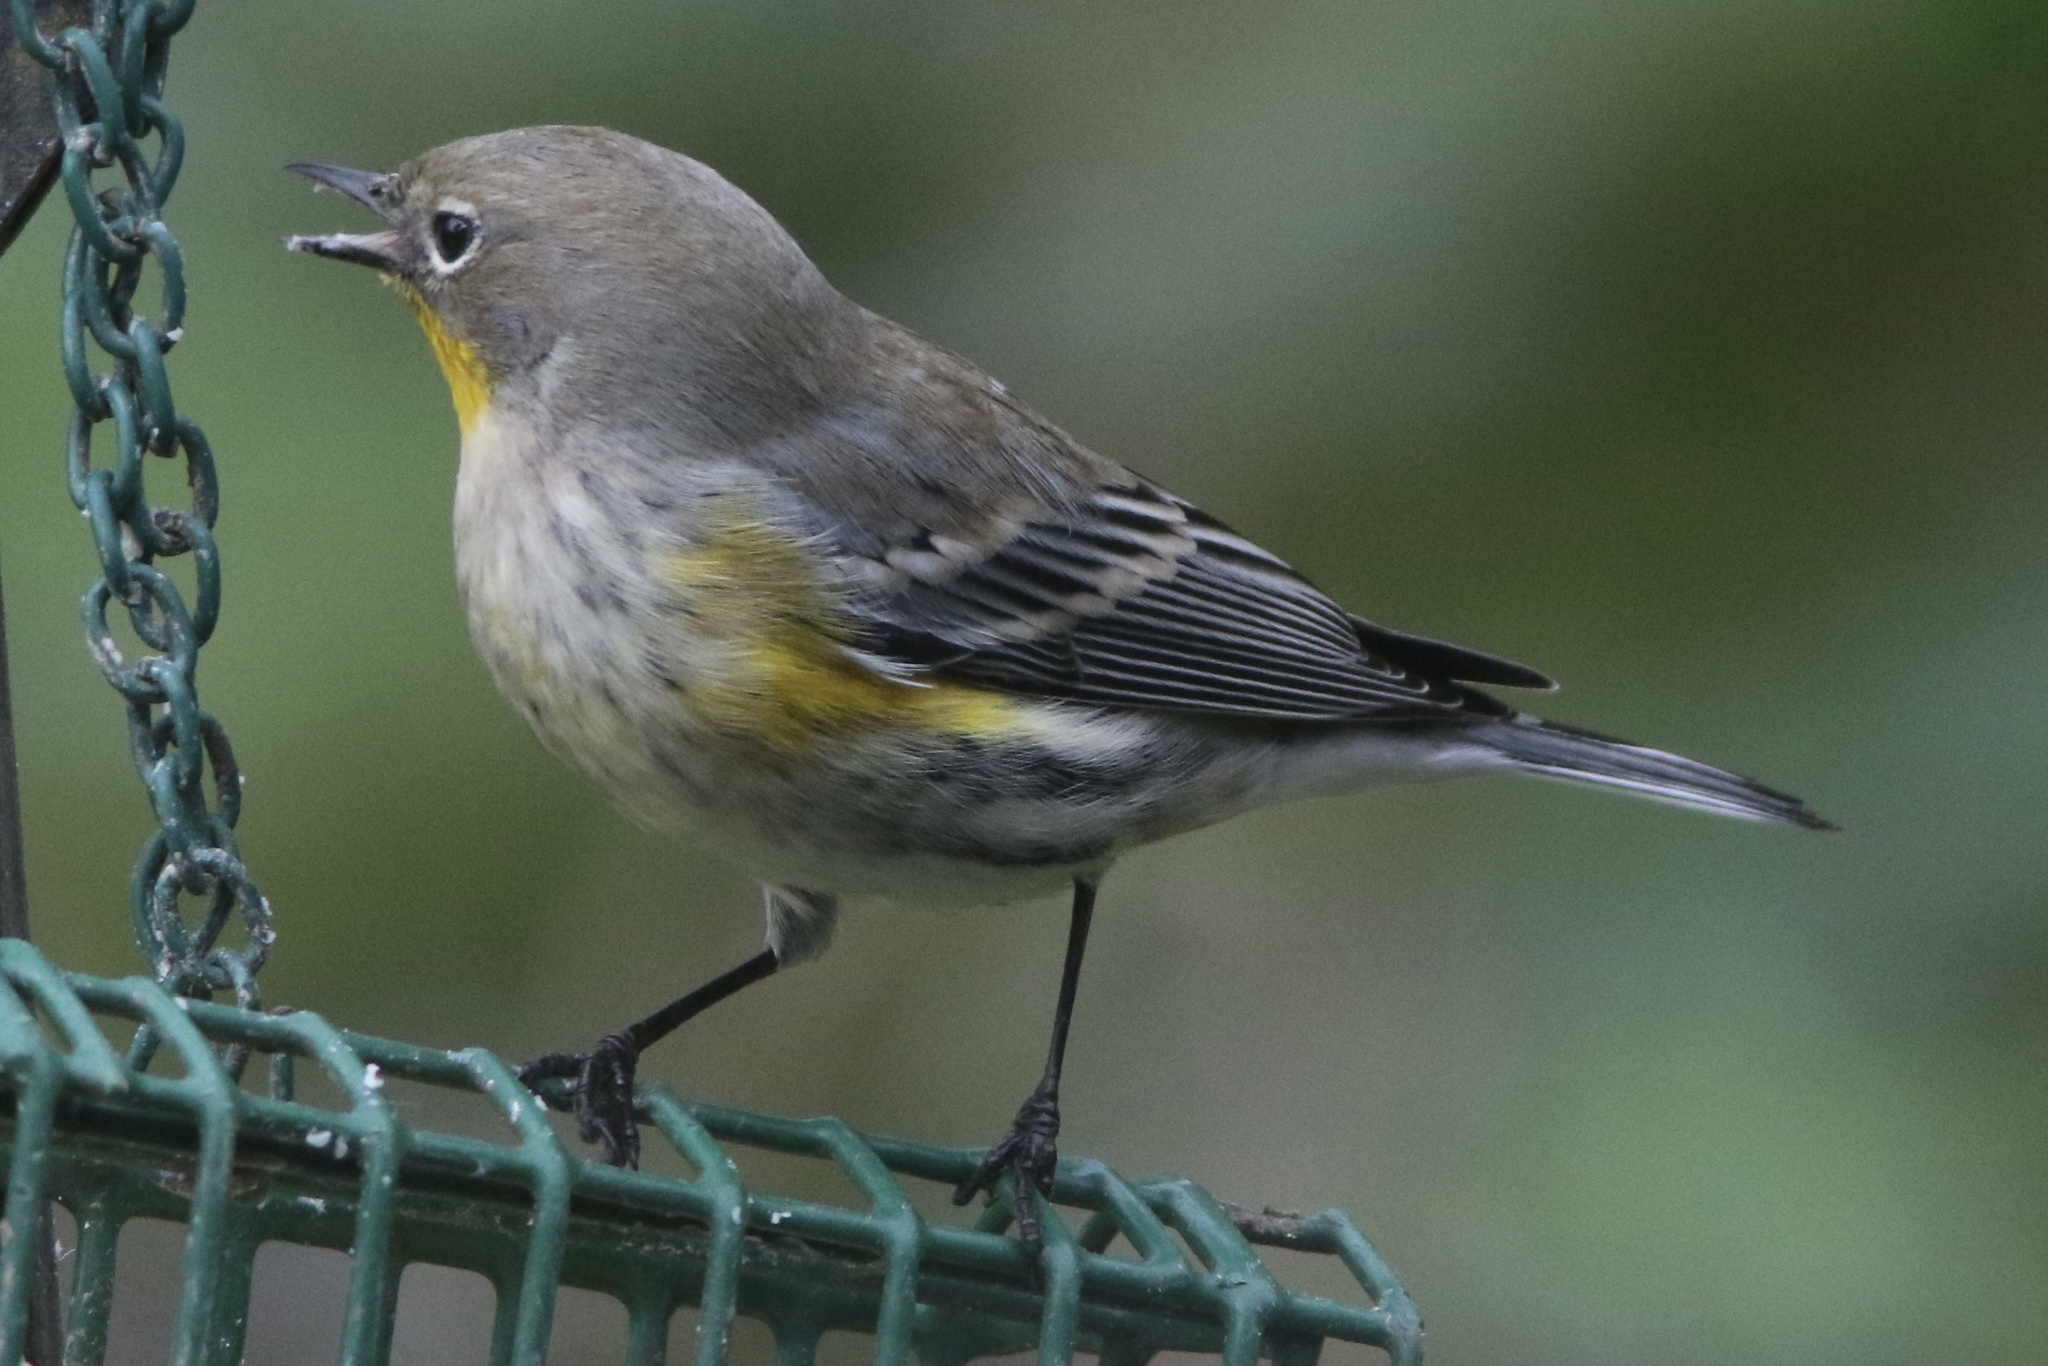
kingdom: Animalia
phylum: Chordata
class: Aves
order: Passeriformes
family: Parulidae
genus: Setophaga
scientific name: Setophaga coronata
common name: Myrtle warbler
